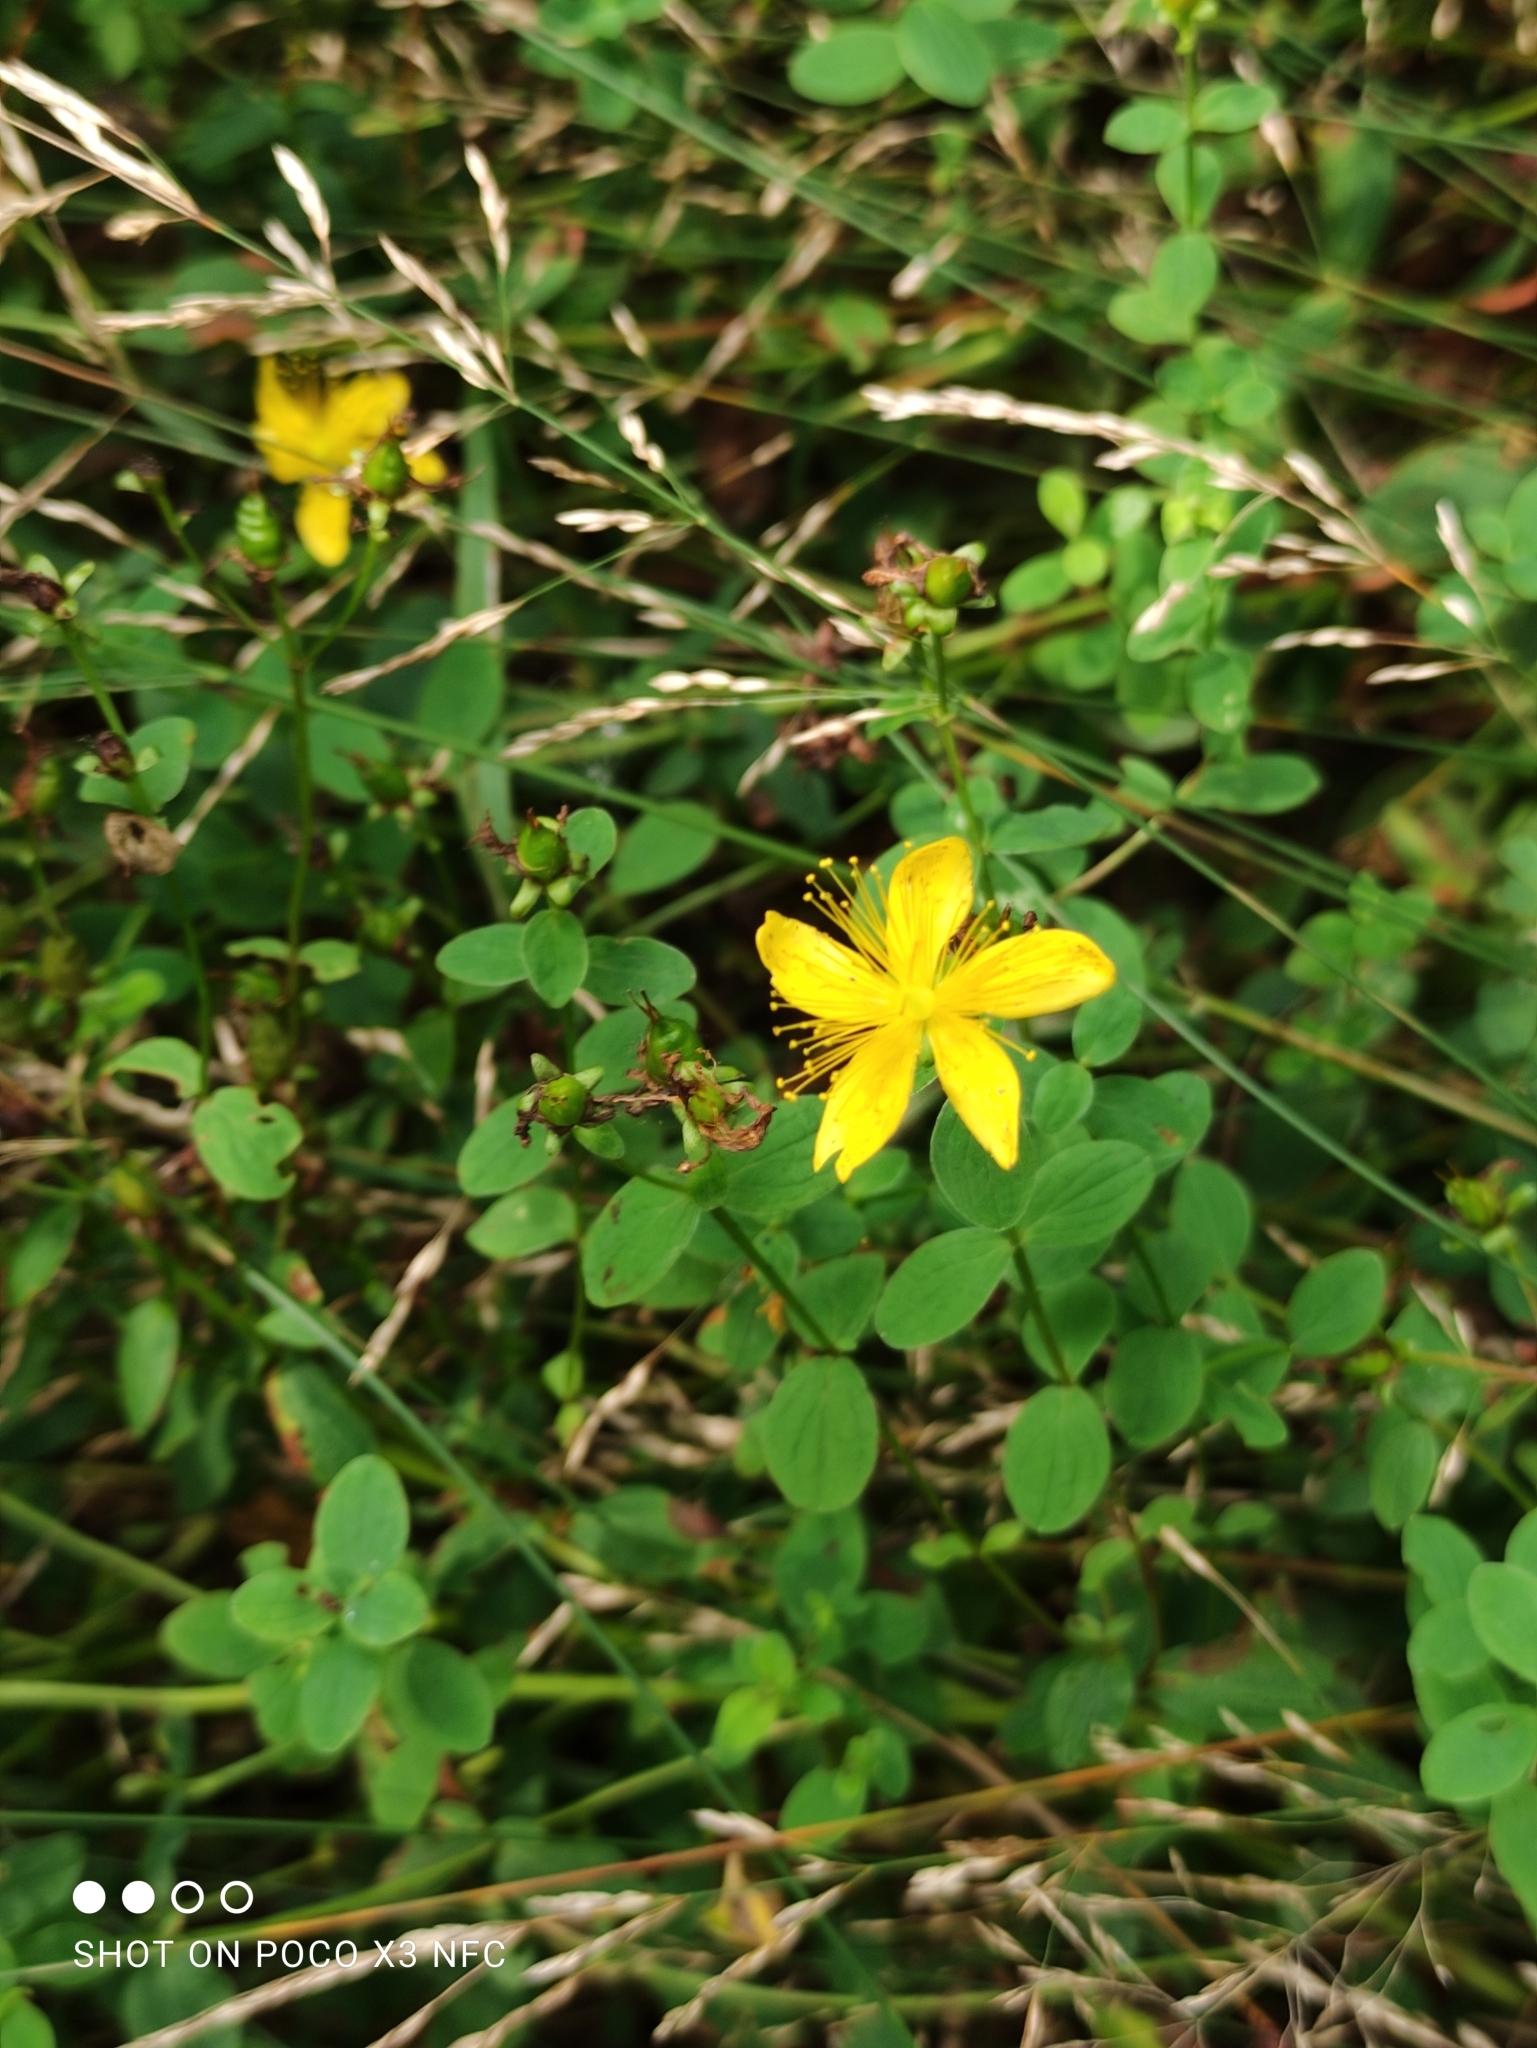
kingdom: Plantae
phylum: Tracheophyta
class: Magnoliopsida
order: Malpighiales
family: Hypericaceae
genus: Hypericum
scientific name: Hypericum maculatum
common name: Imperforate st. john's-wort
